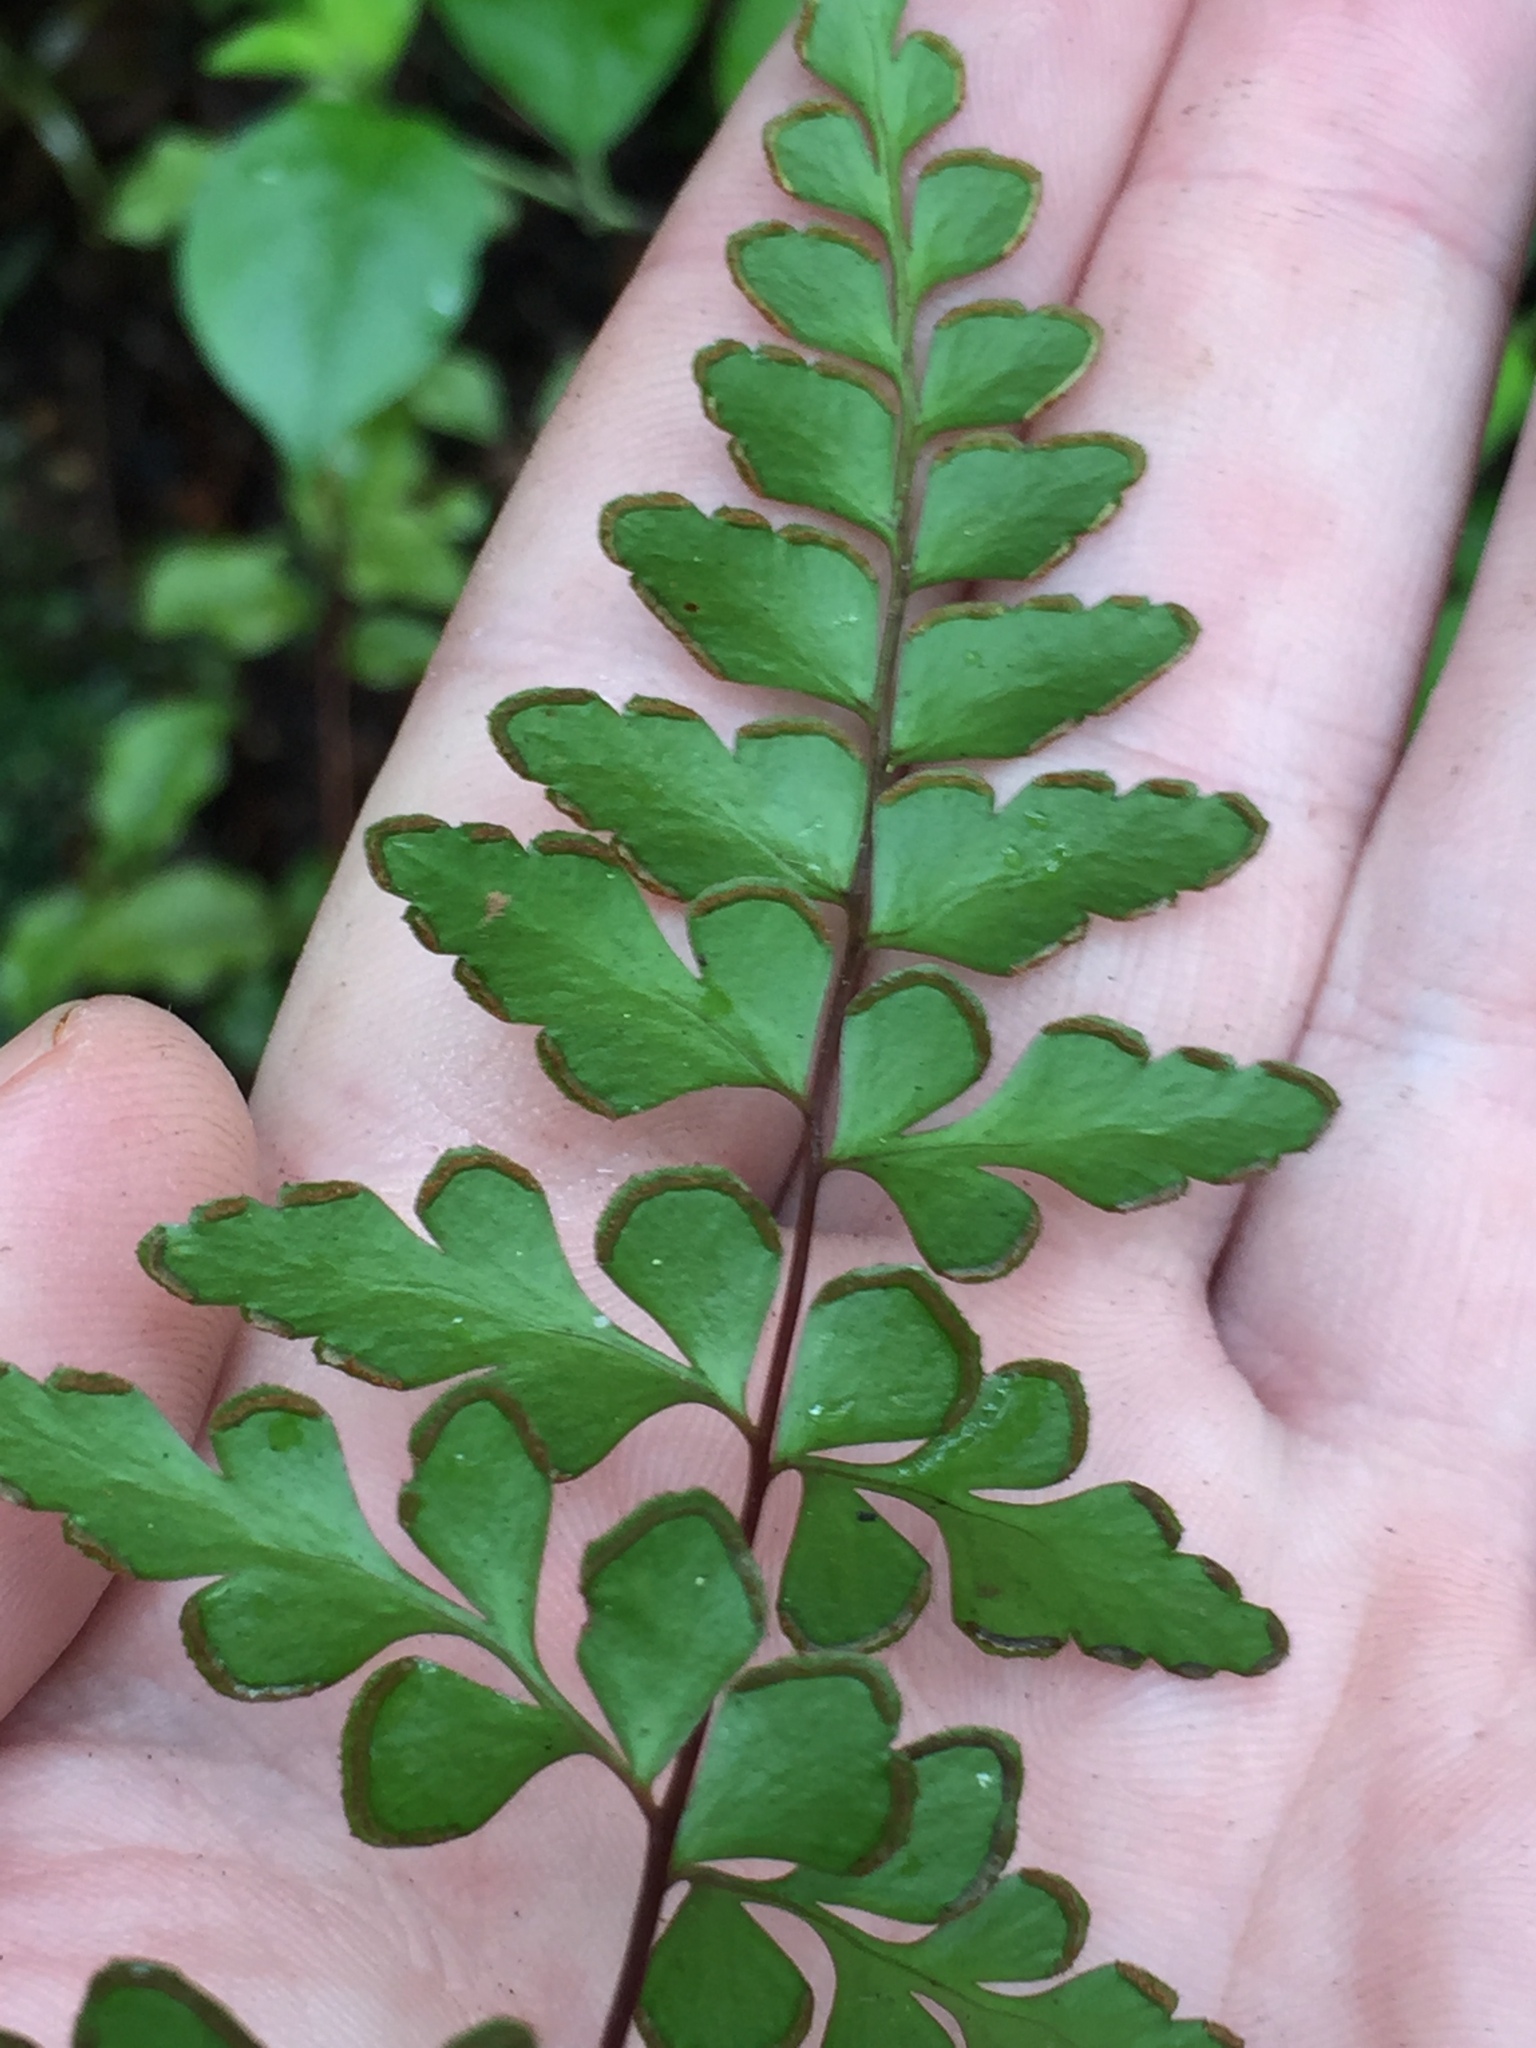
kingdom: Plantae
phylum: Tracheophyta
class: Polypodiopsida
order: Polypodiales
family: Lindsaeaceae
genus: Lindsaea
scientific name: Lindsaea trichomanoides
